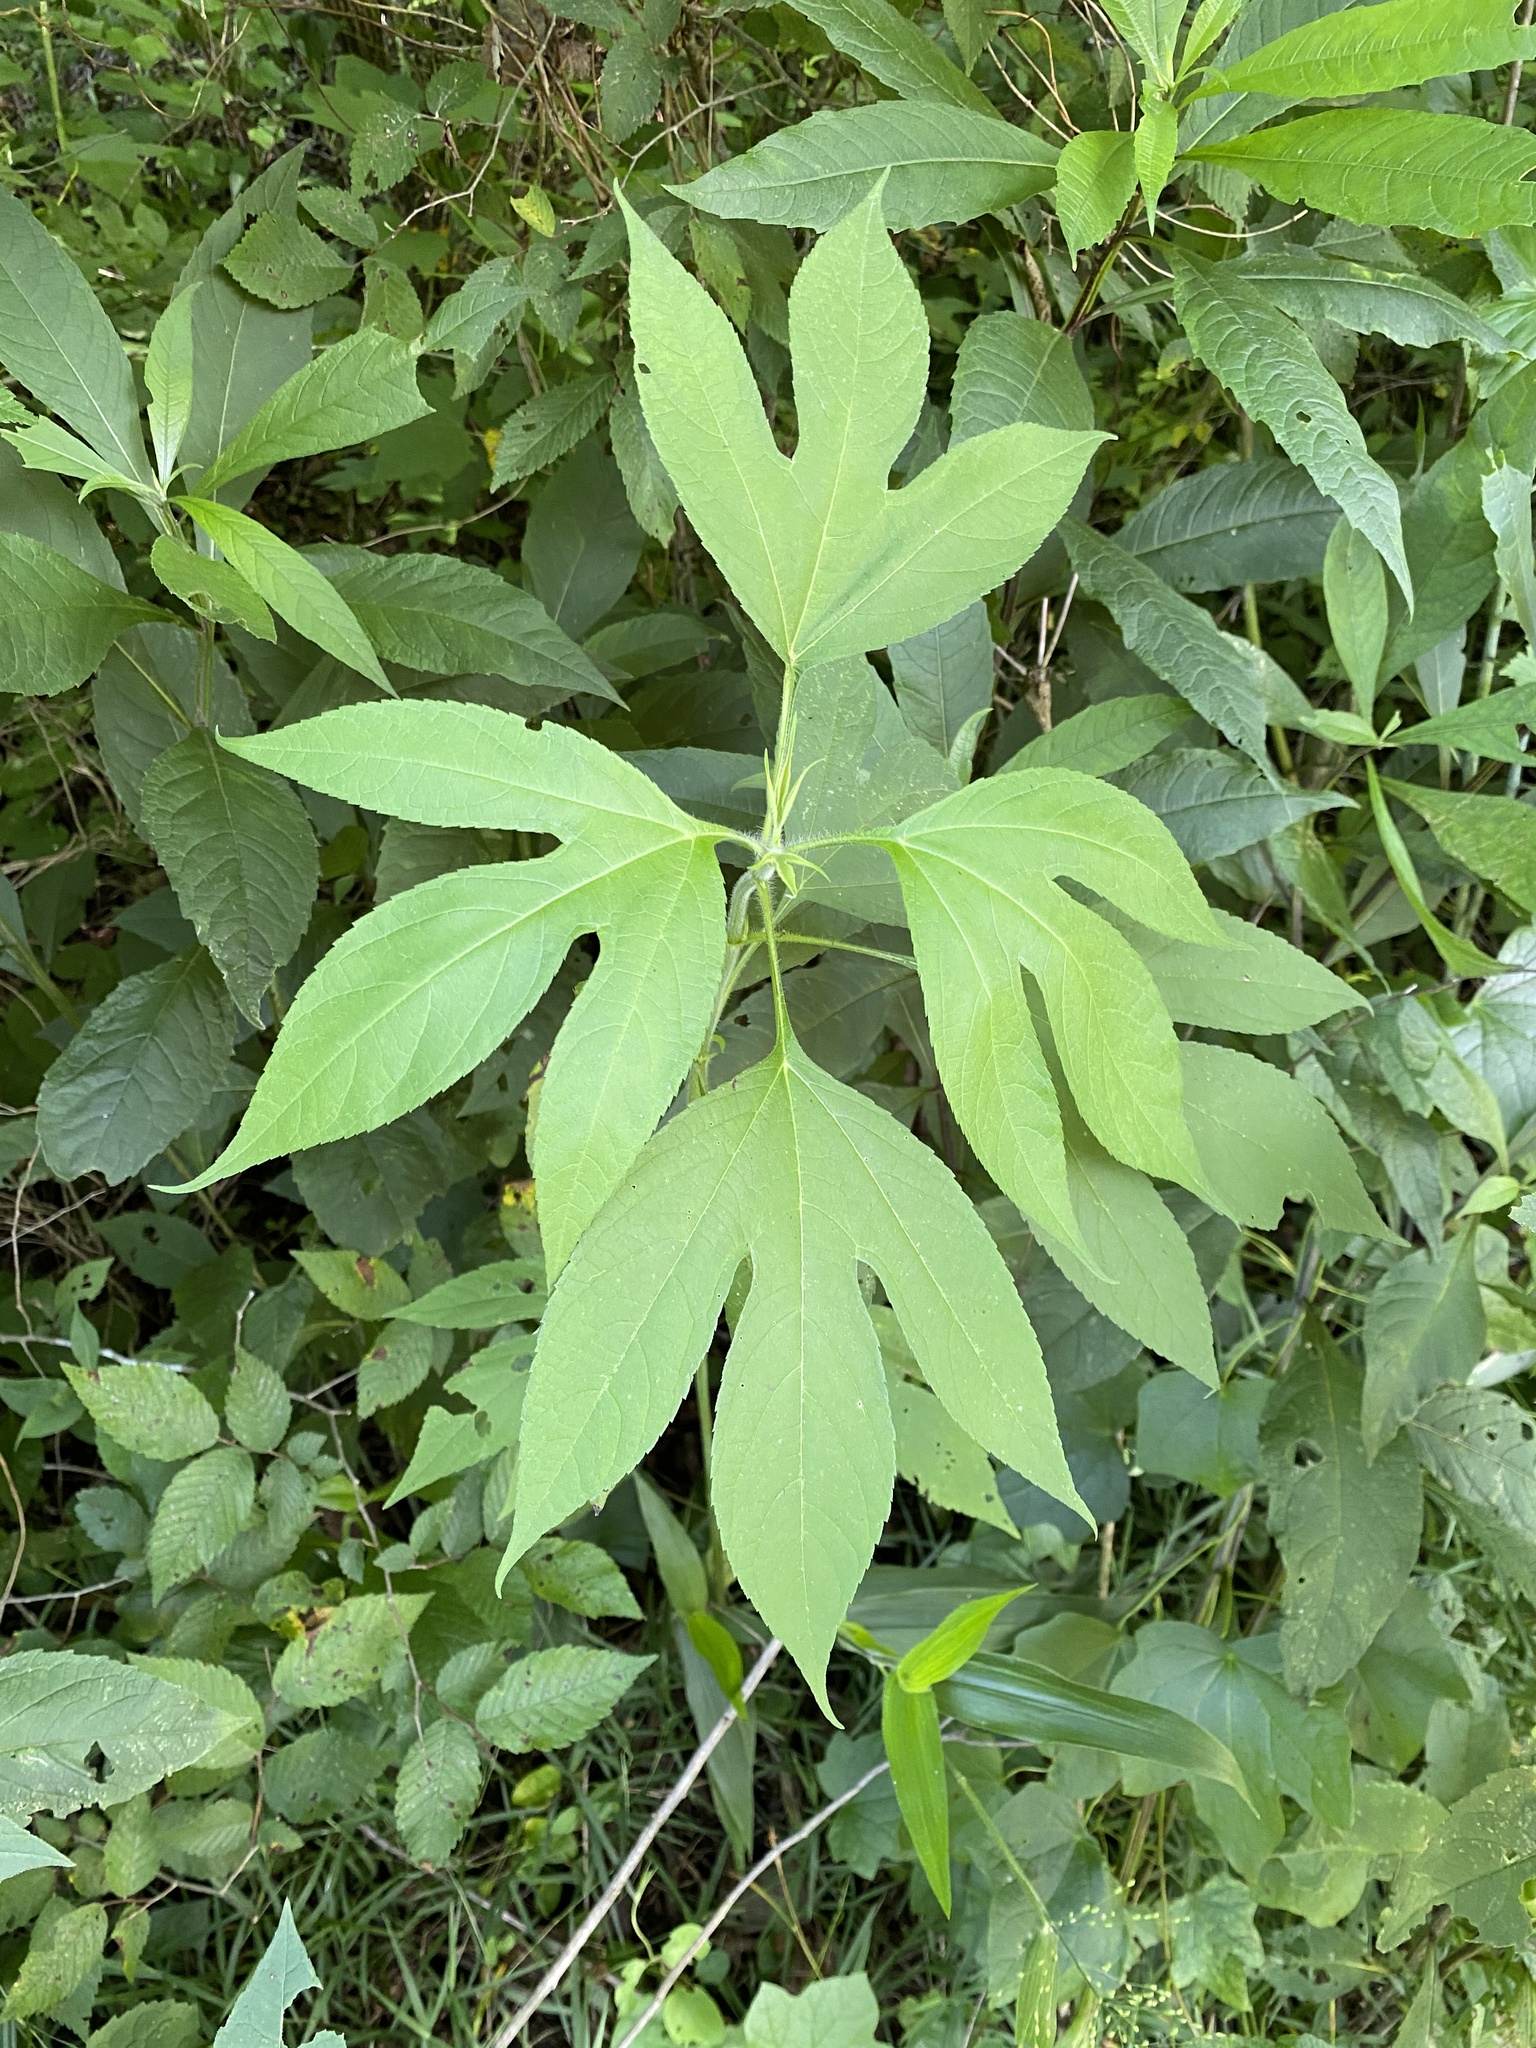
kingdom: Plantae
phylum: Tracheophyta
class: Magnoliopsida
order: Asterales
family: Asteraceae
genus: Ambrosia
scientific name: Ambrosia trifida
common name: Giant ragweed
